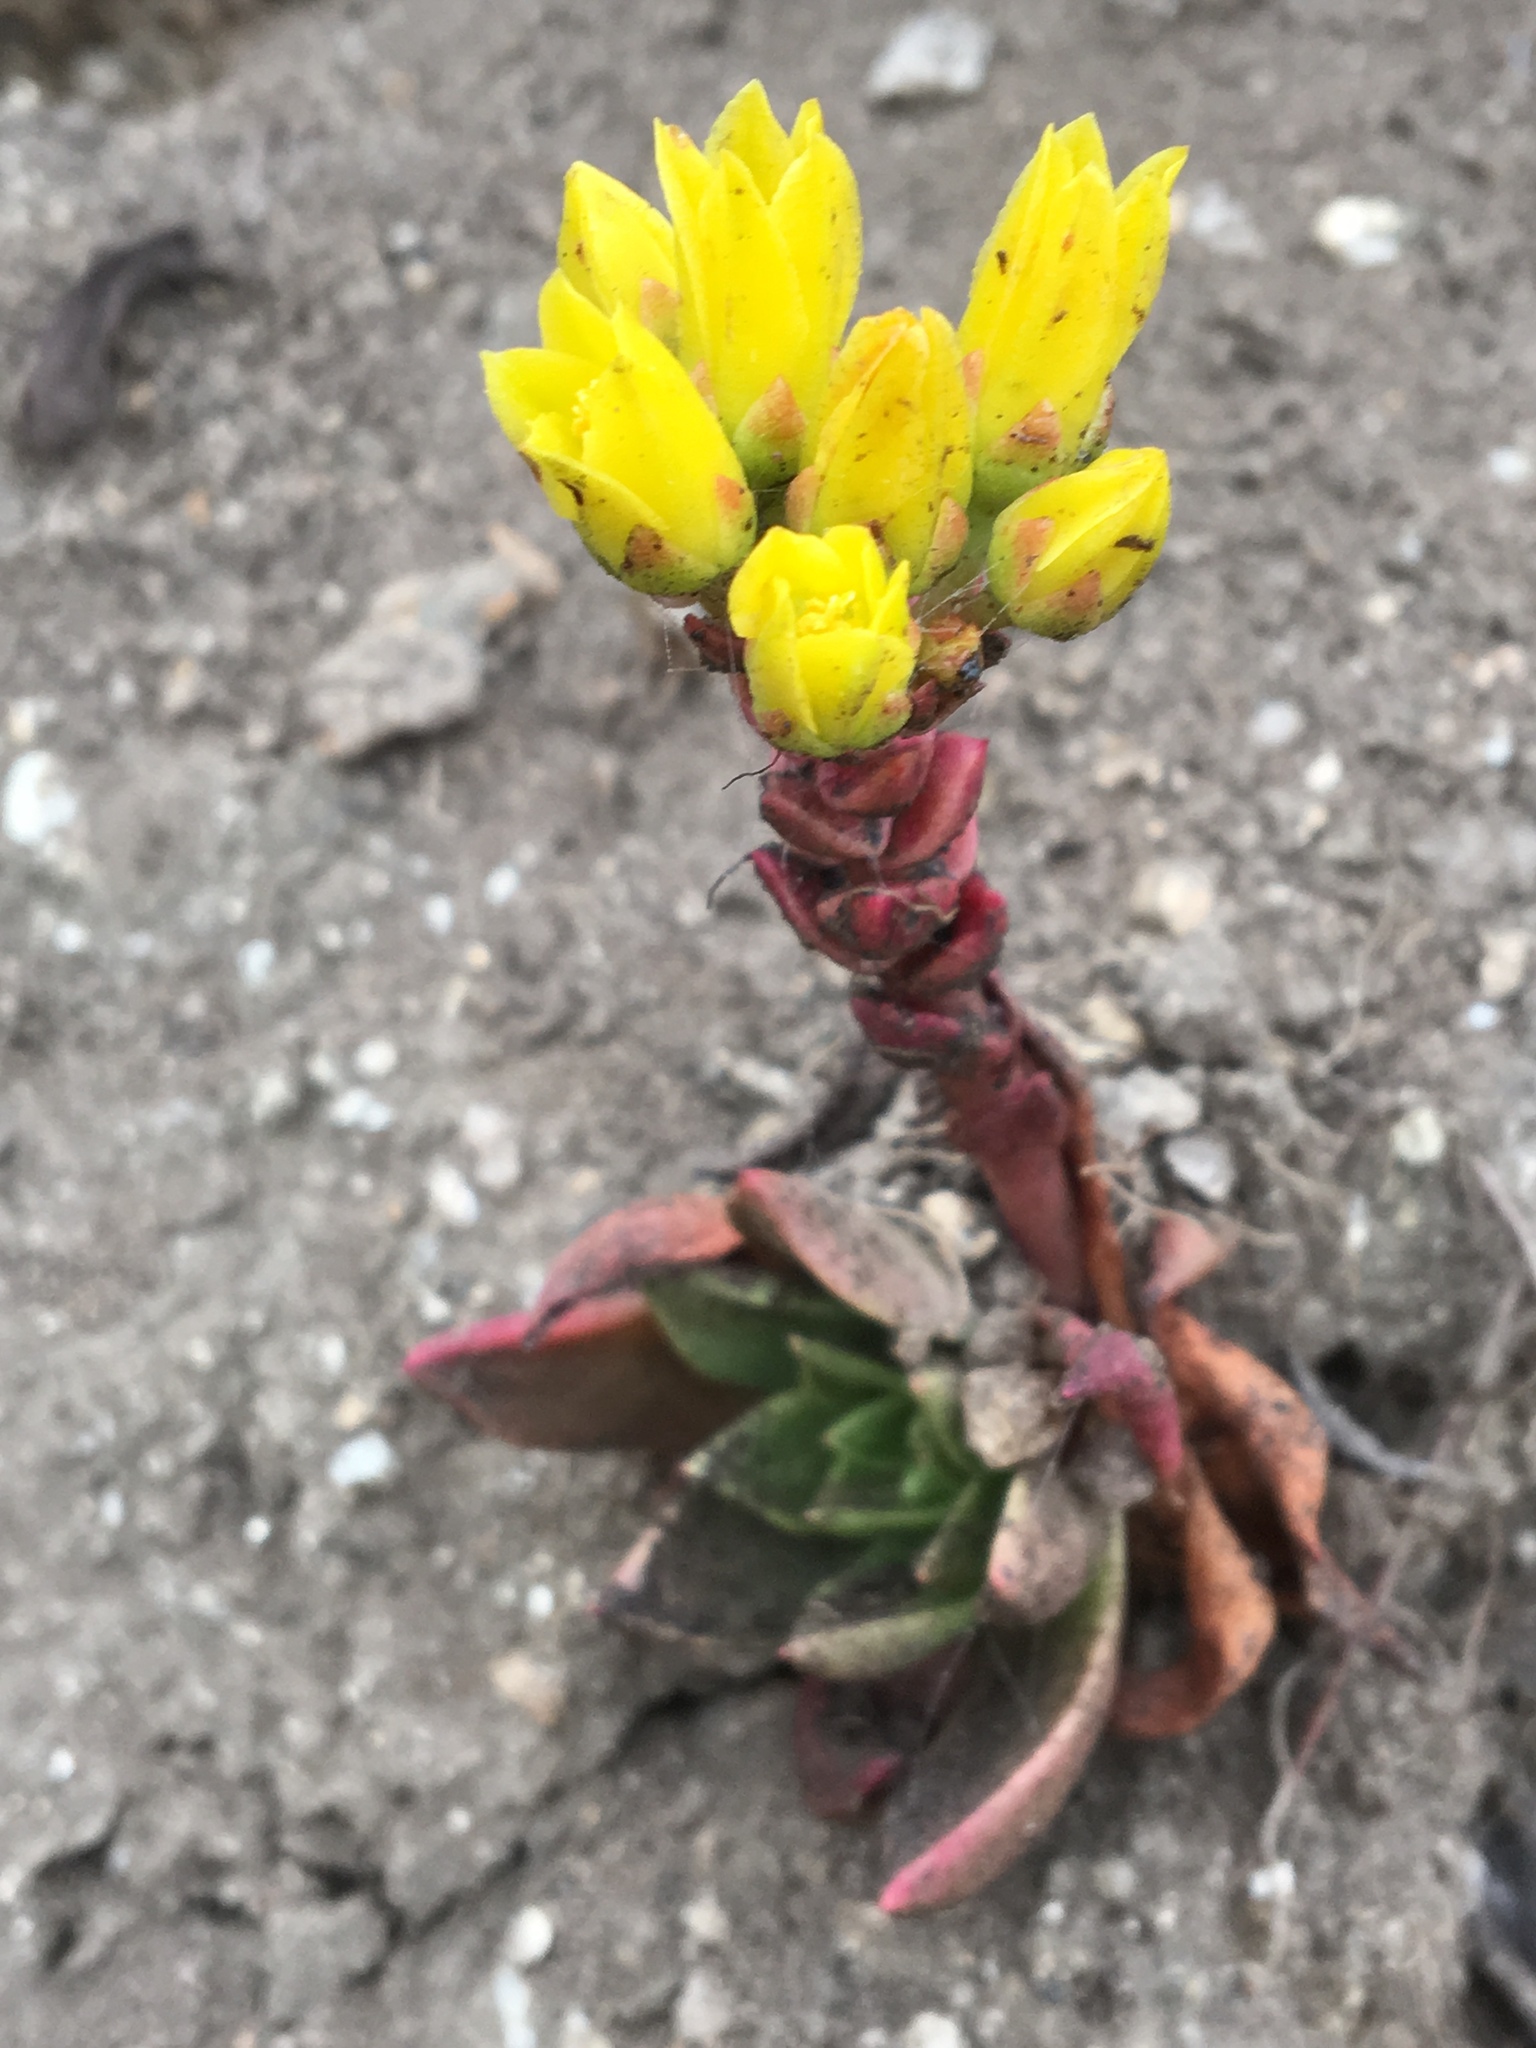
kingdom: Plantae
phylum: Tracheophyta
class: Magnoliopsida
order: Saxifragales
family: Crassulaceae
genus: Dudleya
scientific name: Dudleya caespitosa
